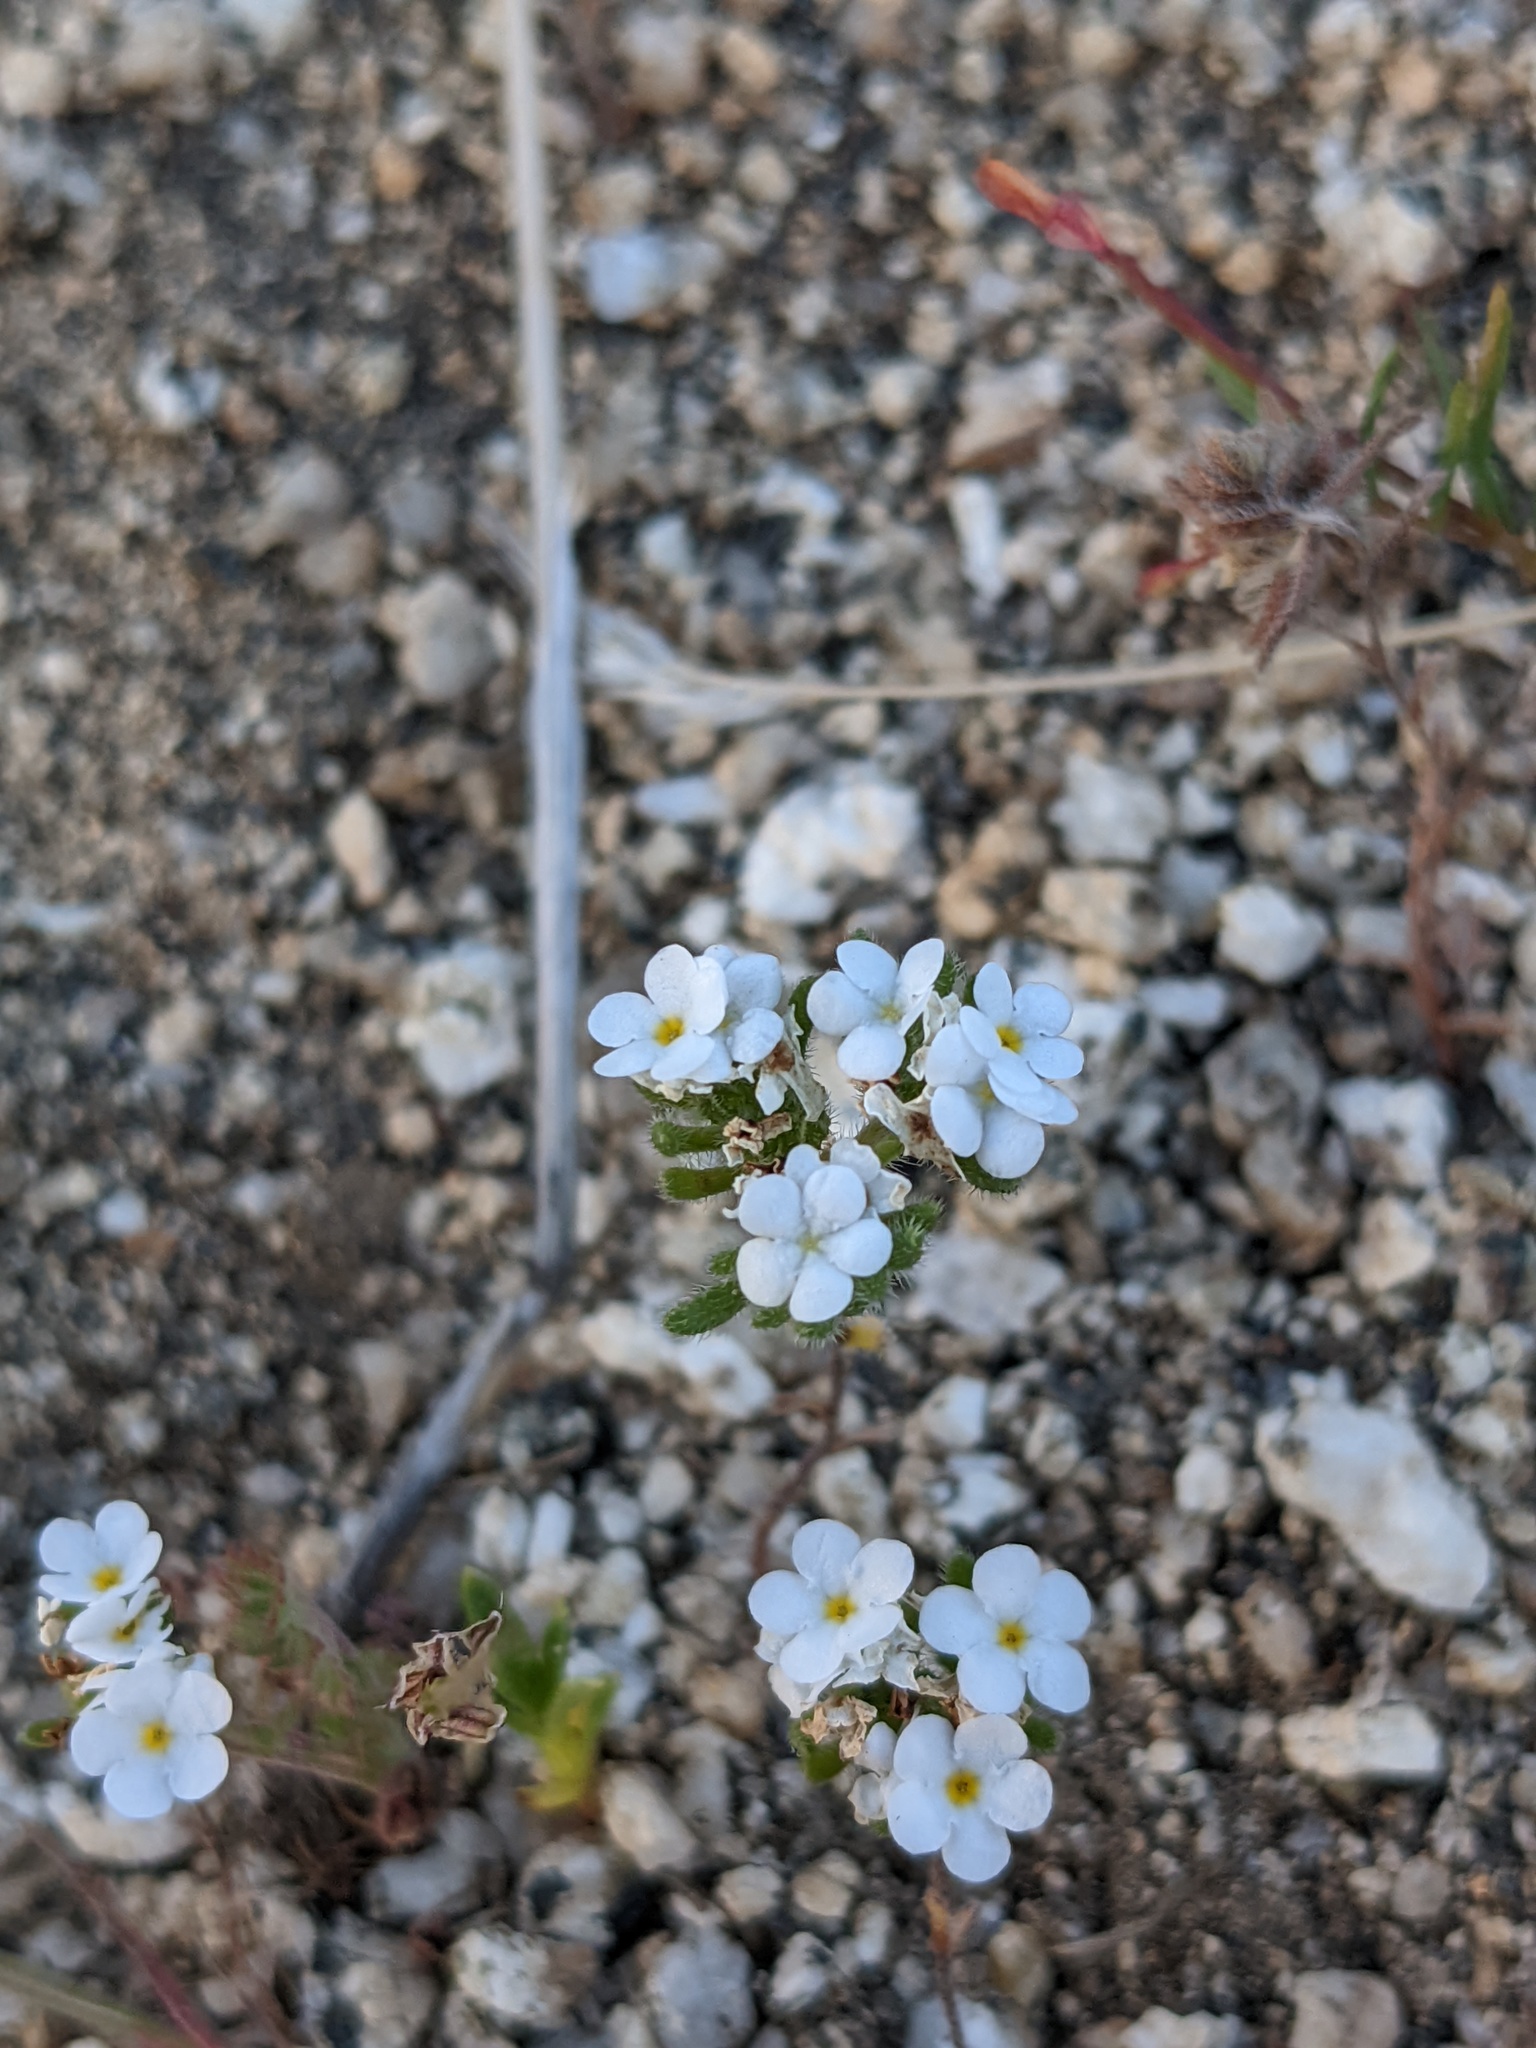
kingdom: Plantae
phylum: Tracheophyta
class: Magnoliopsida
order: Boraginales
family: Boraginaceae
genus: Eremocarya
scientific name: Eremocarya lepida
